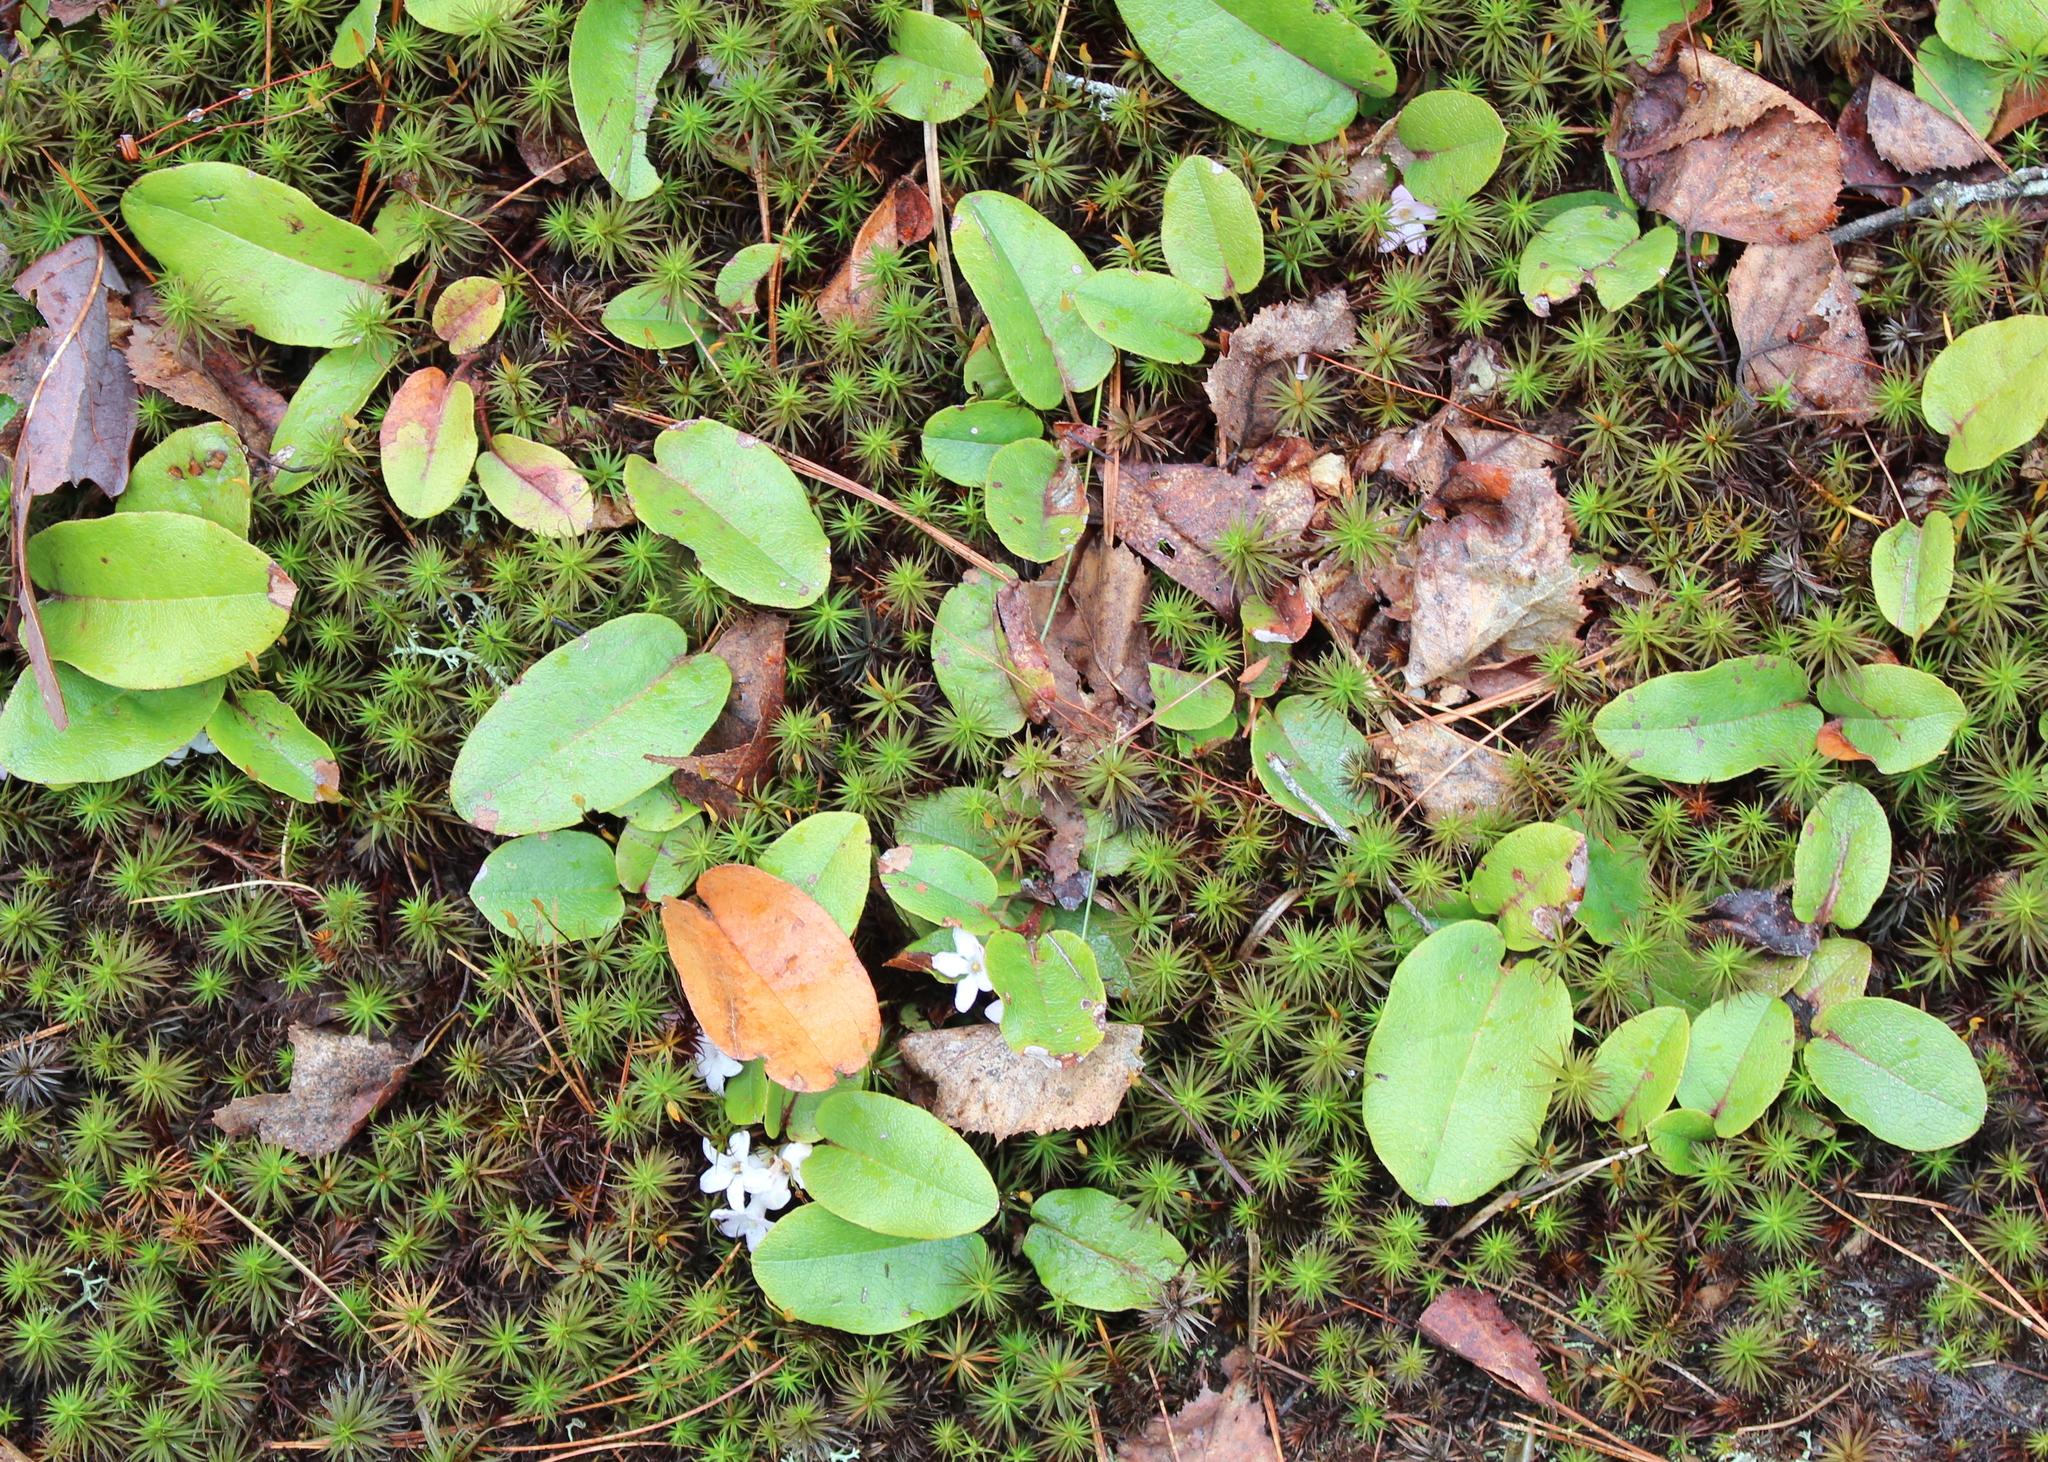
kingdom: Plantae
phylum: Tracheophyta
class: Magnoliopsida
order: Ericales
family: Ericaceae
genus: Epigaea
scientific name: Epigaea repens
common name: Gravelroot
